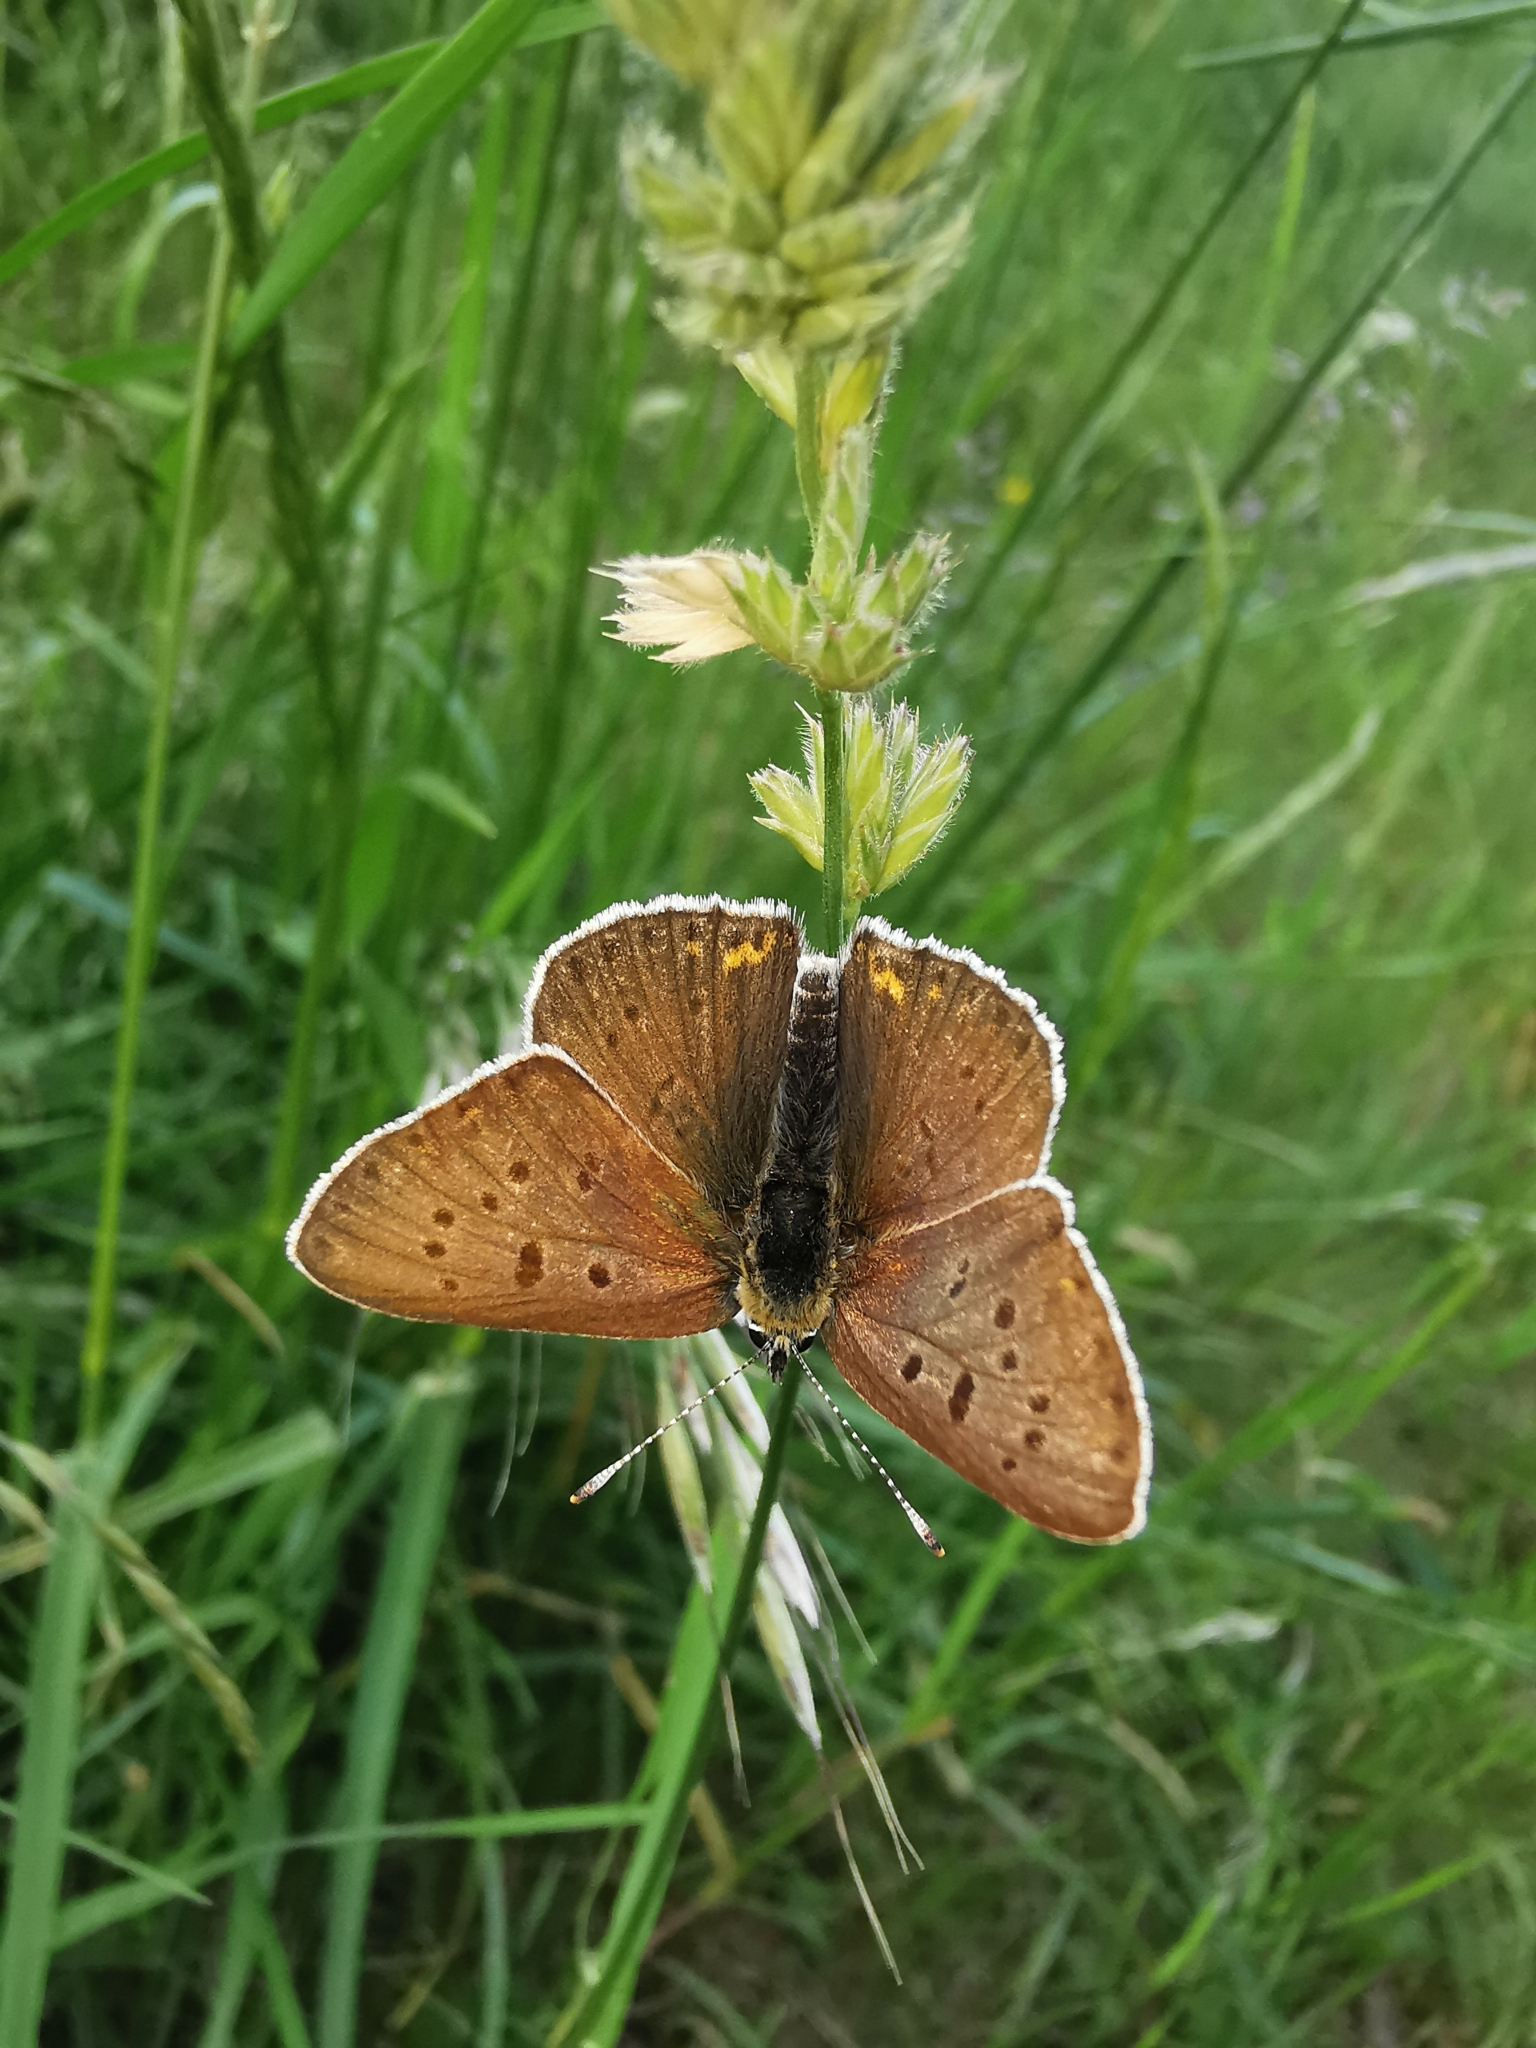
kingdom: Animalia
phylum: Arthropoda
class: Insecta
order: Lepidoptera
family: Lycaenidae
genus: Loweia
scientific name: Loweia tityrus
